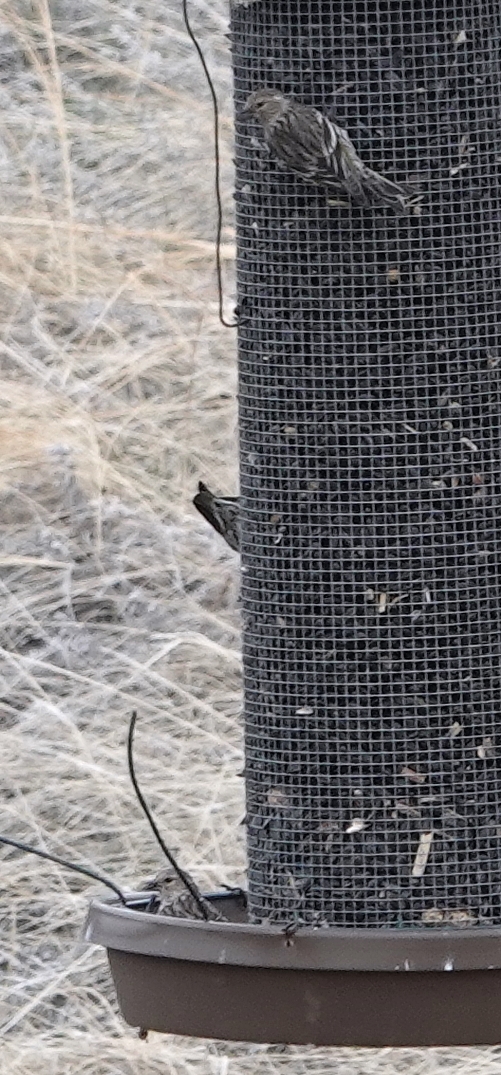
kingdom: Animalia
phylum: Chordata
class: Aves
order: Passeriformes
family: Fringillidae
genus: Spinus
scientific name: Spinus pinus
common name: Pine siskin
